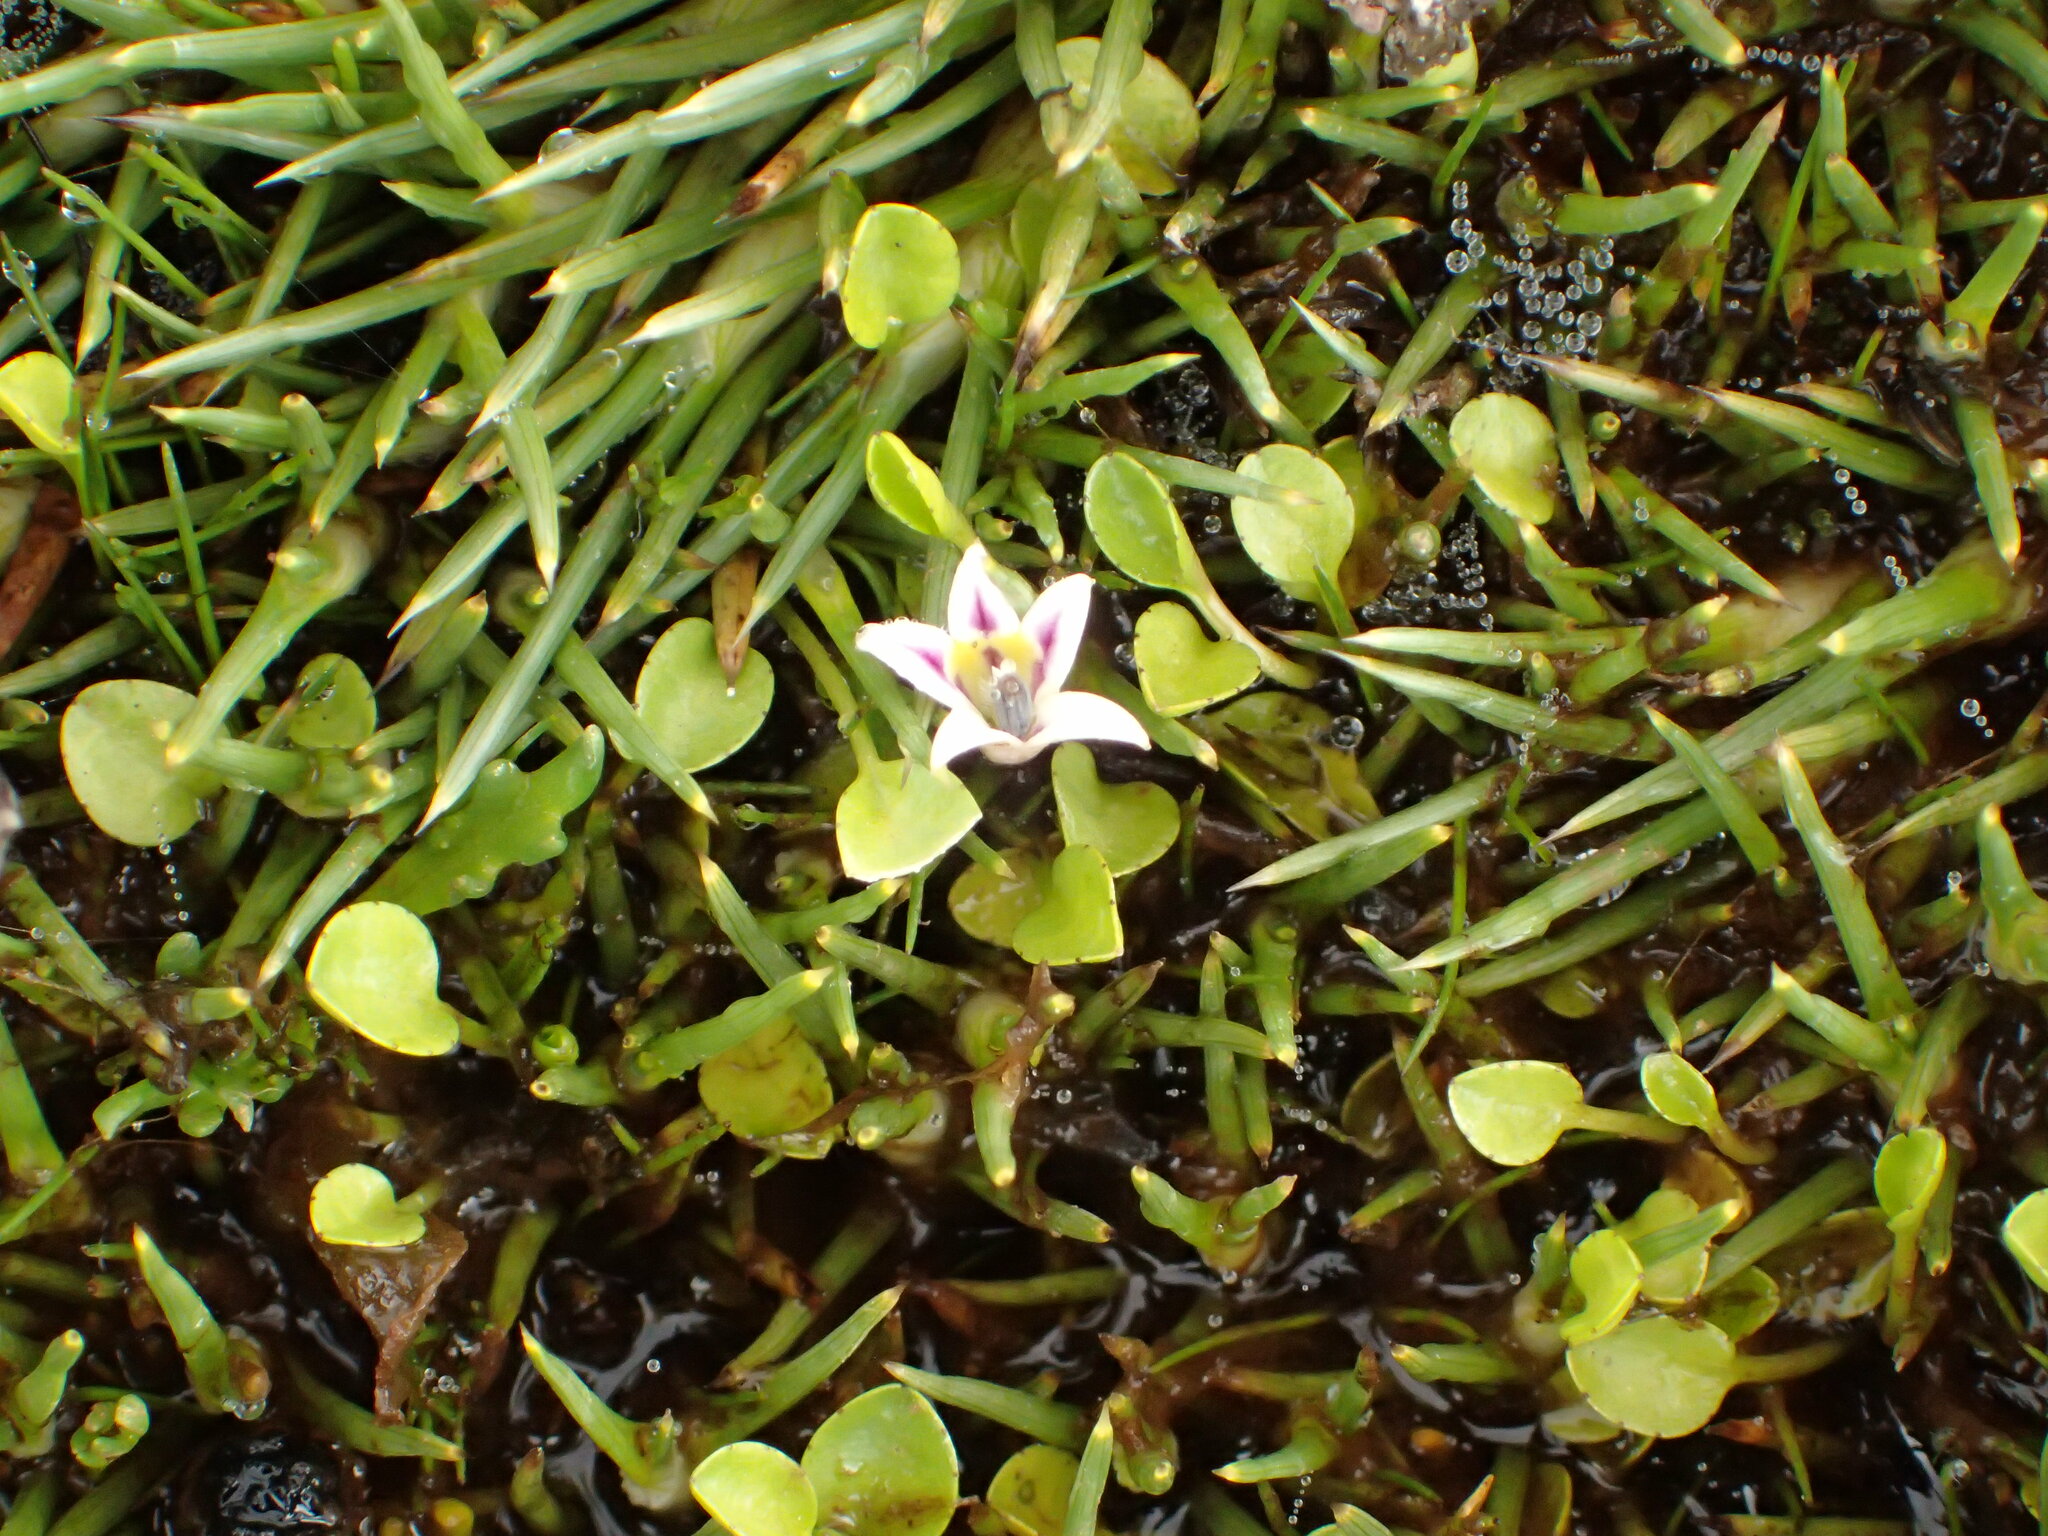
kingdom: Plantae
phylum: Tracheophyta
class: Magnoliopsida
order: Asterales
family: Campanulaceae
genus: Lobelia
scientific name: Lobelia oligophylla
